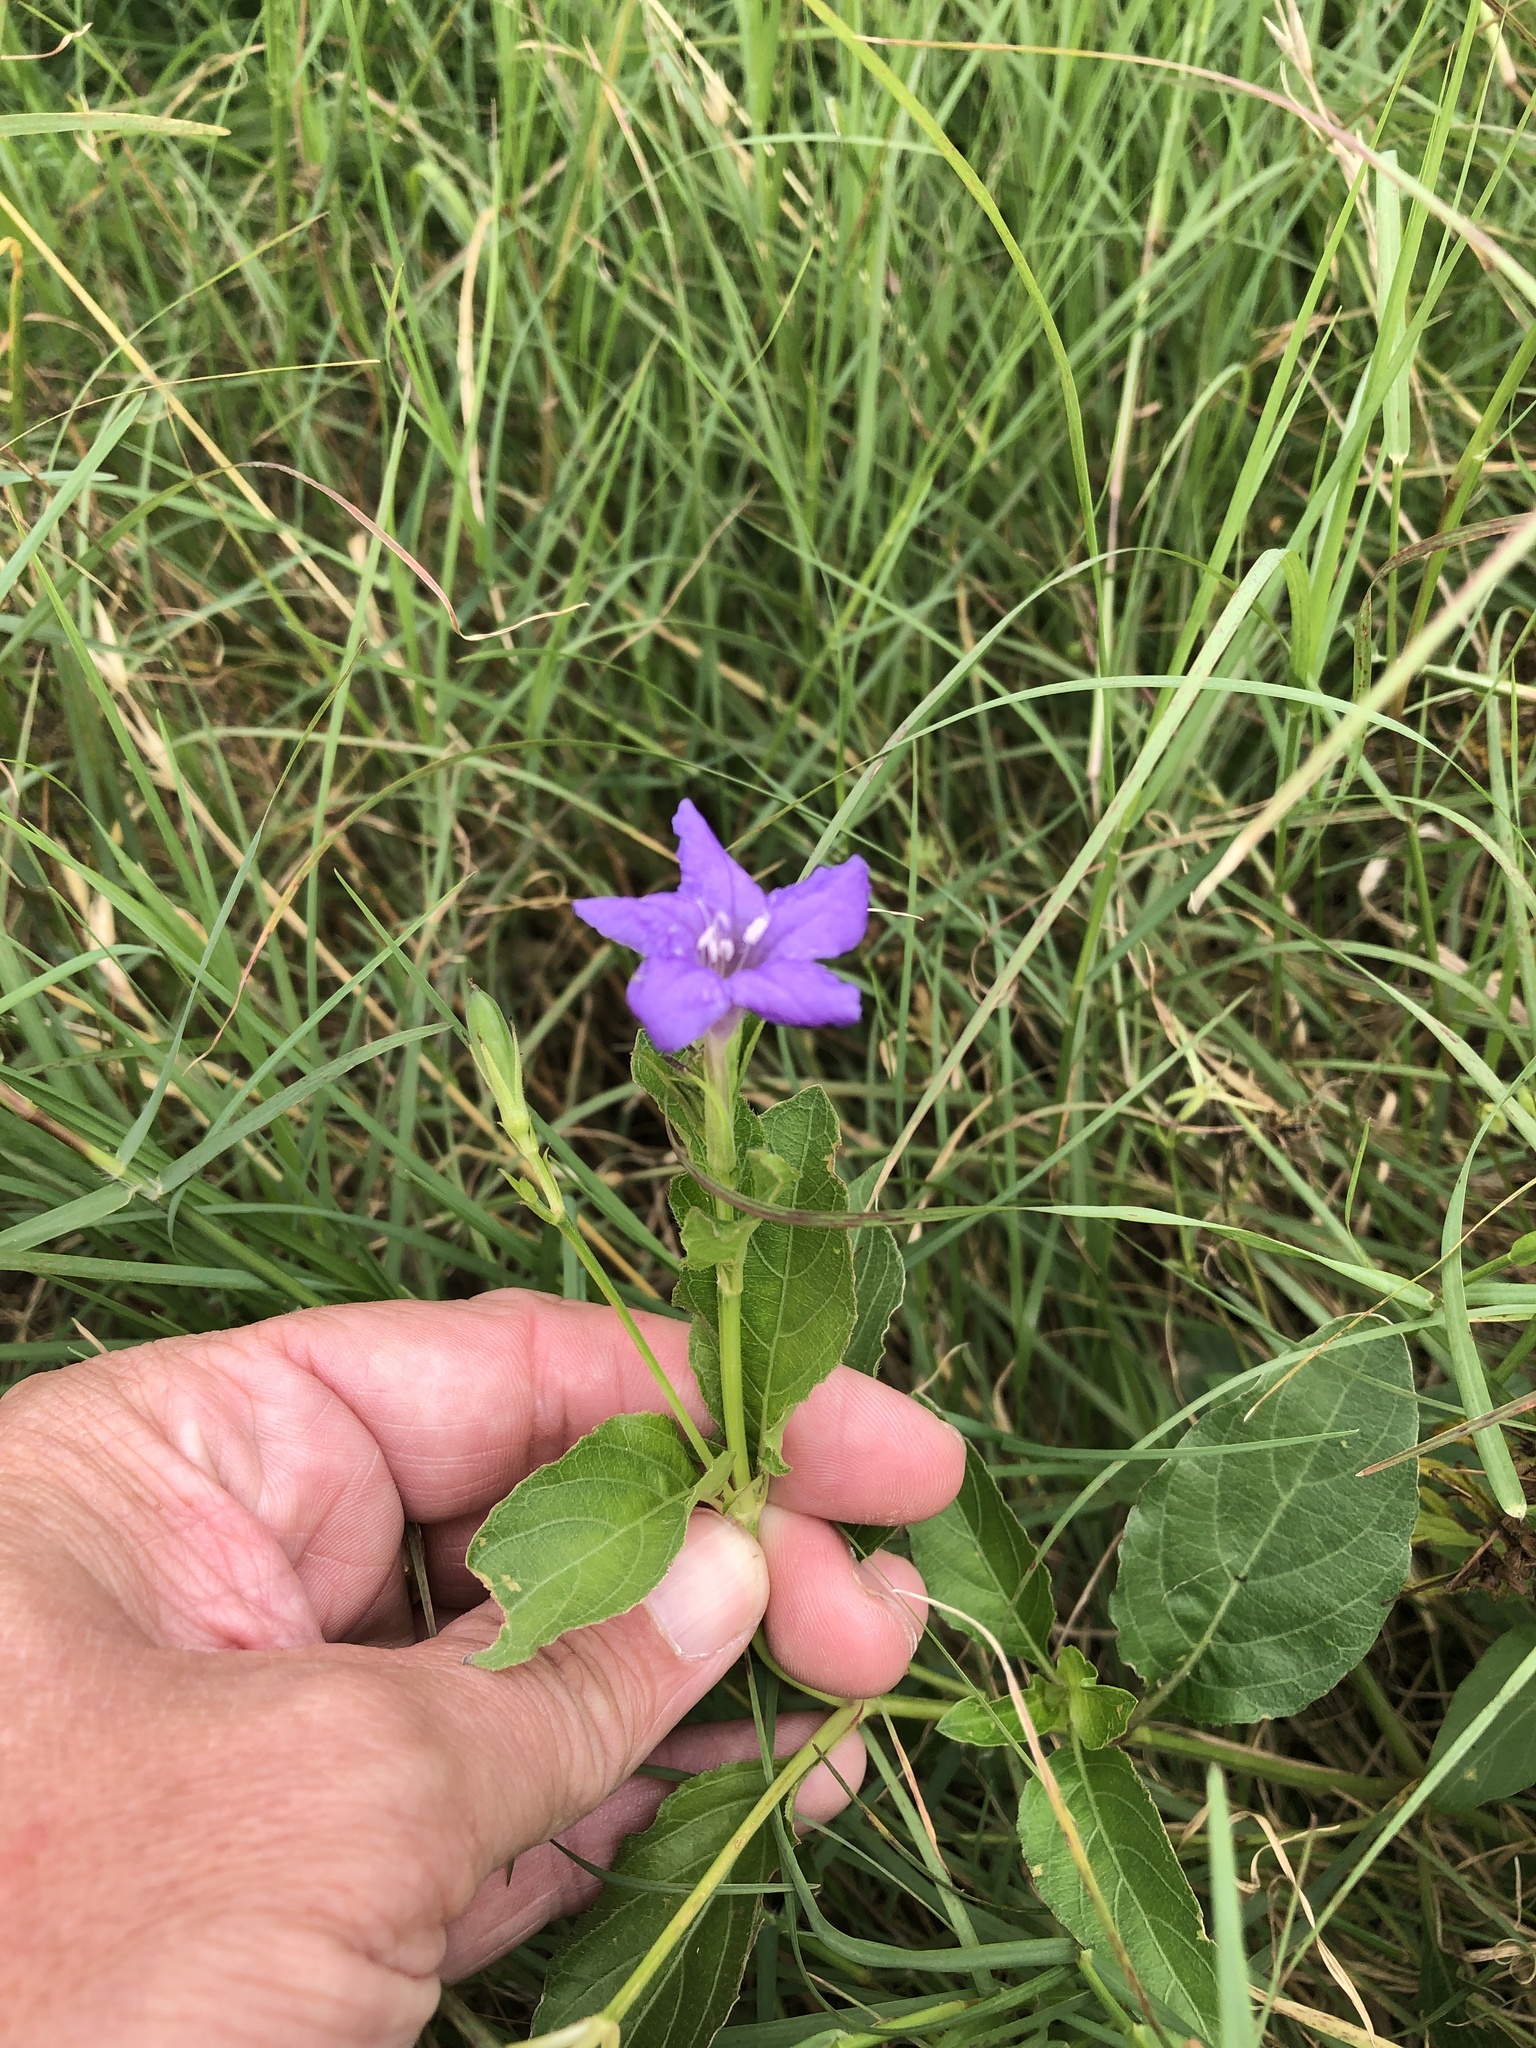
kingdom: Plantae
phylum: Tracheophyta
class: Magnoliopsida
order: Lamiales
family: Acanthaceae
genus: Ruellia
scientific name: Ruellia ciliatiflora
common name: Hairyflower wild petunia
